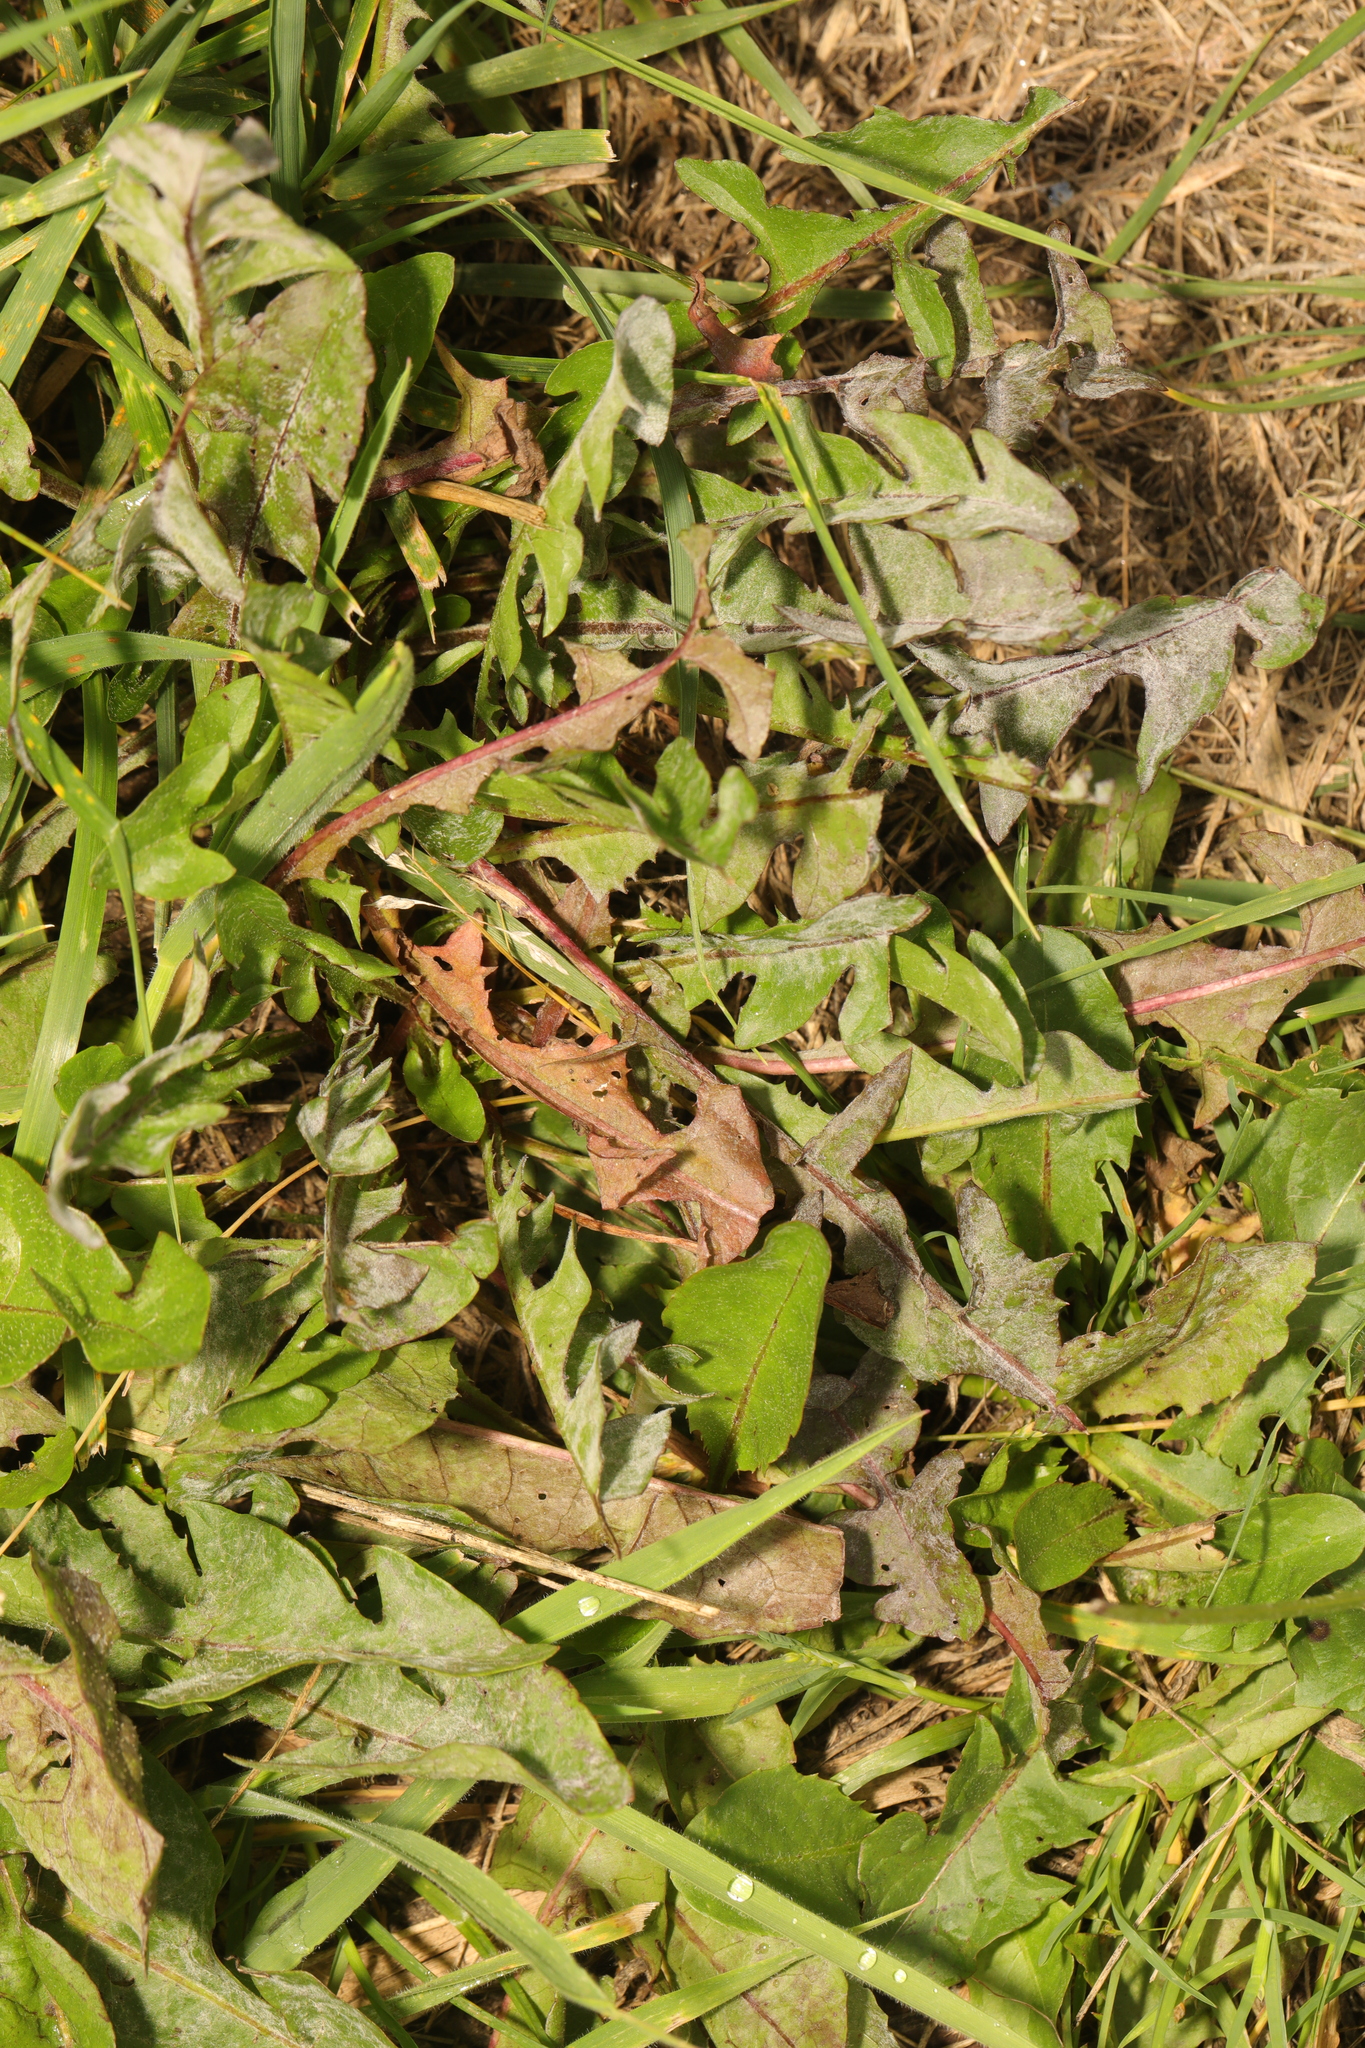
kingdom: Plantae
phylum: Tracheophyta
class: Magnoliopsida
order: Asterales
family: Asteraceae
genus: Taraxacum
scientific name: Taraxacum officinale
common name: Common dandelion
